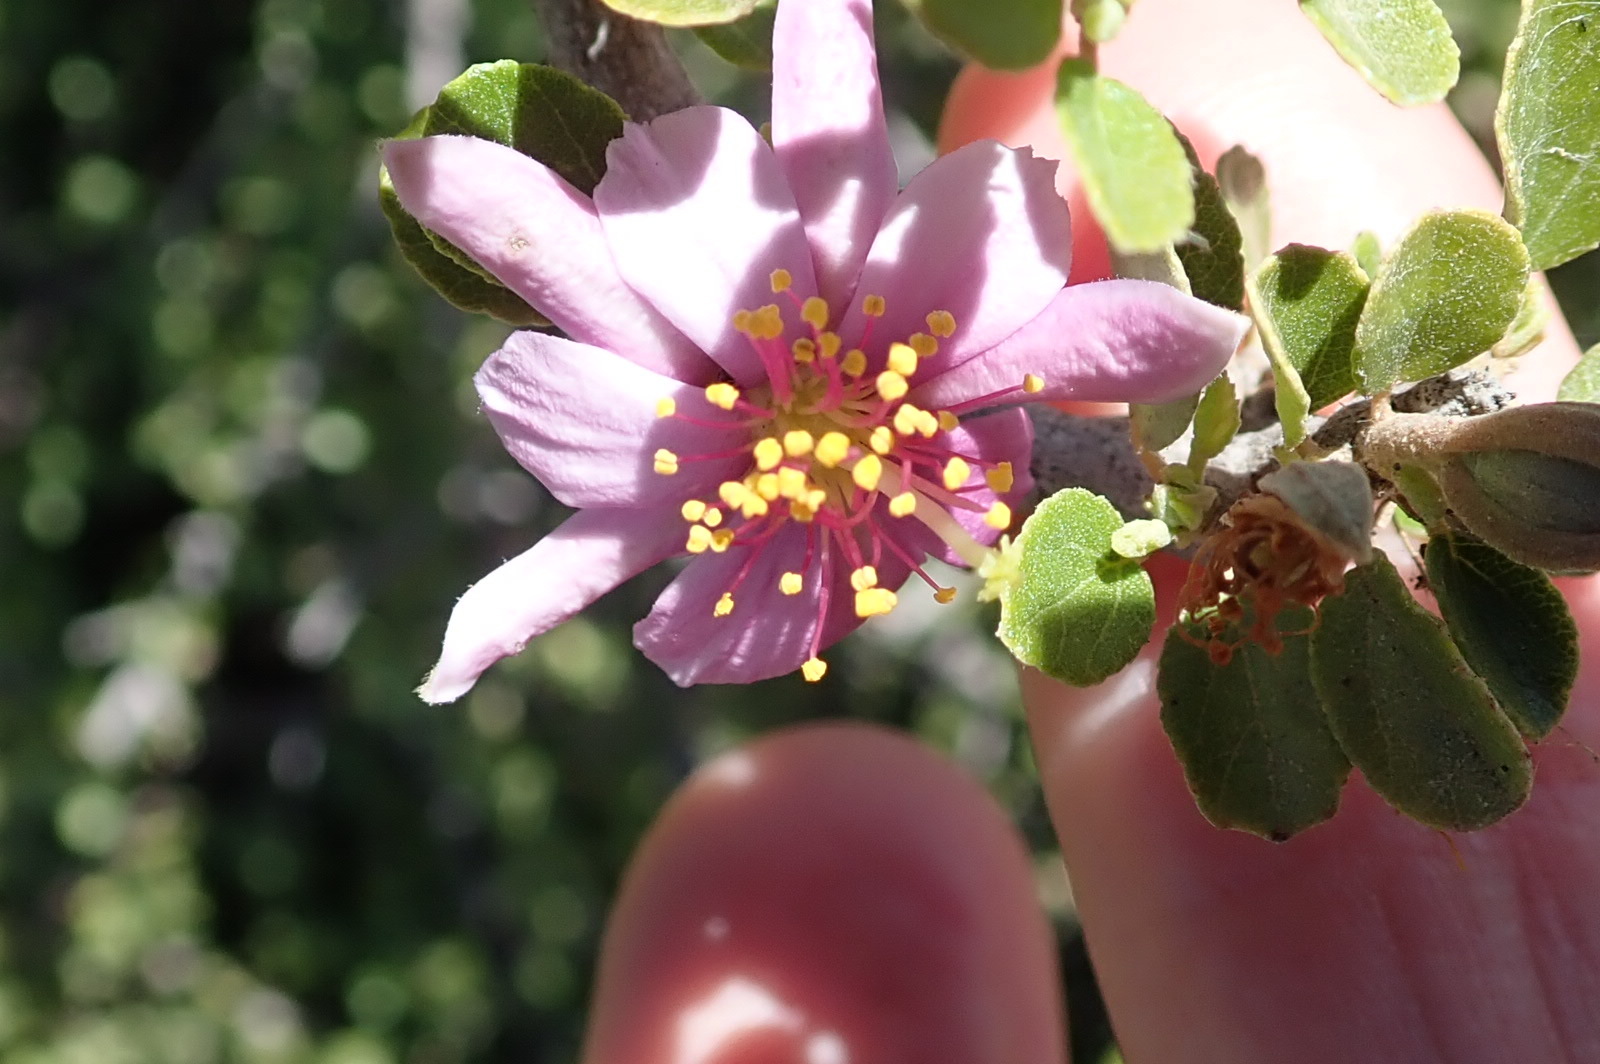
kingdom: Plantae
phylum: Tracheophyta
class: Magnoliopsida
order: Malvales
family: Malvaceae
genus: Grewia
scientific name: Grewia robusta
